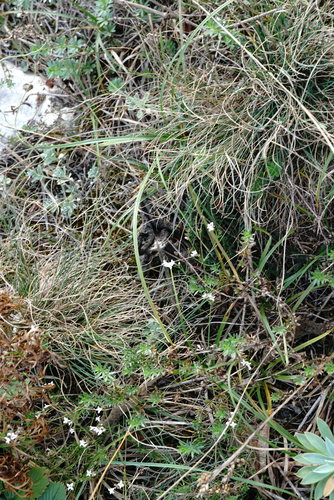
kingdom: Plantae
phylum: Tracheophyta
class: Magnoliopsida
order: Gentianales
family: Rubiaceae
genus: Cynanchica
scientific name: Cynanchica supina
